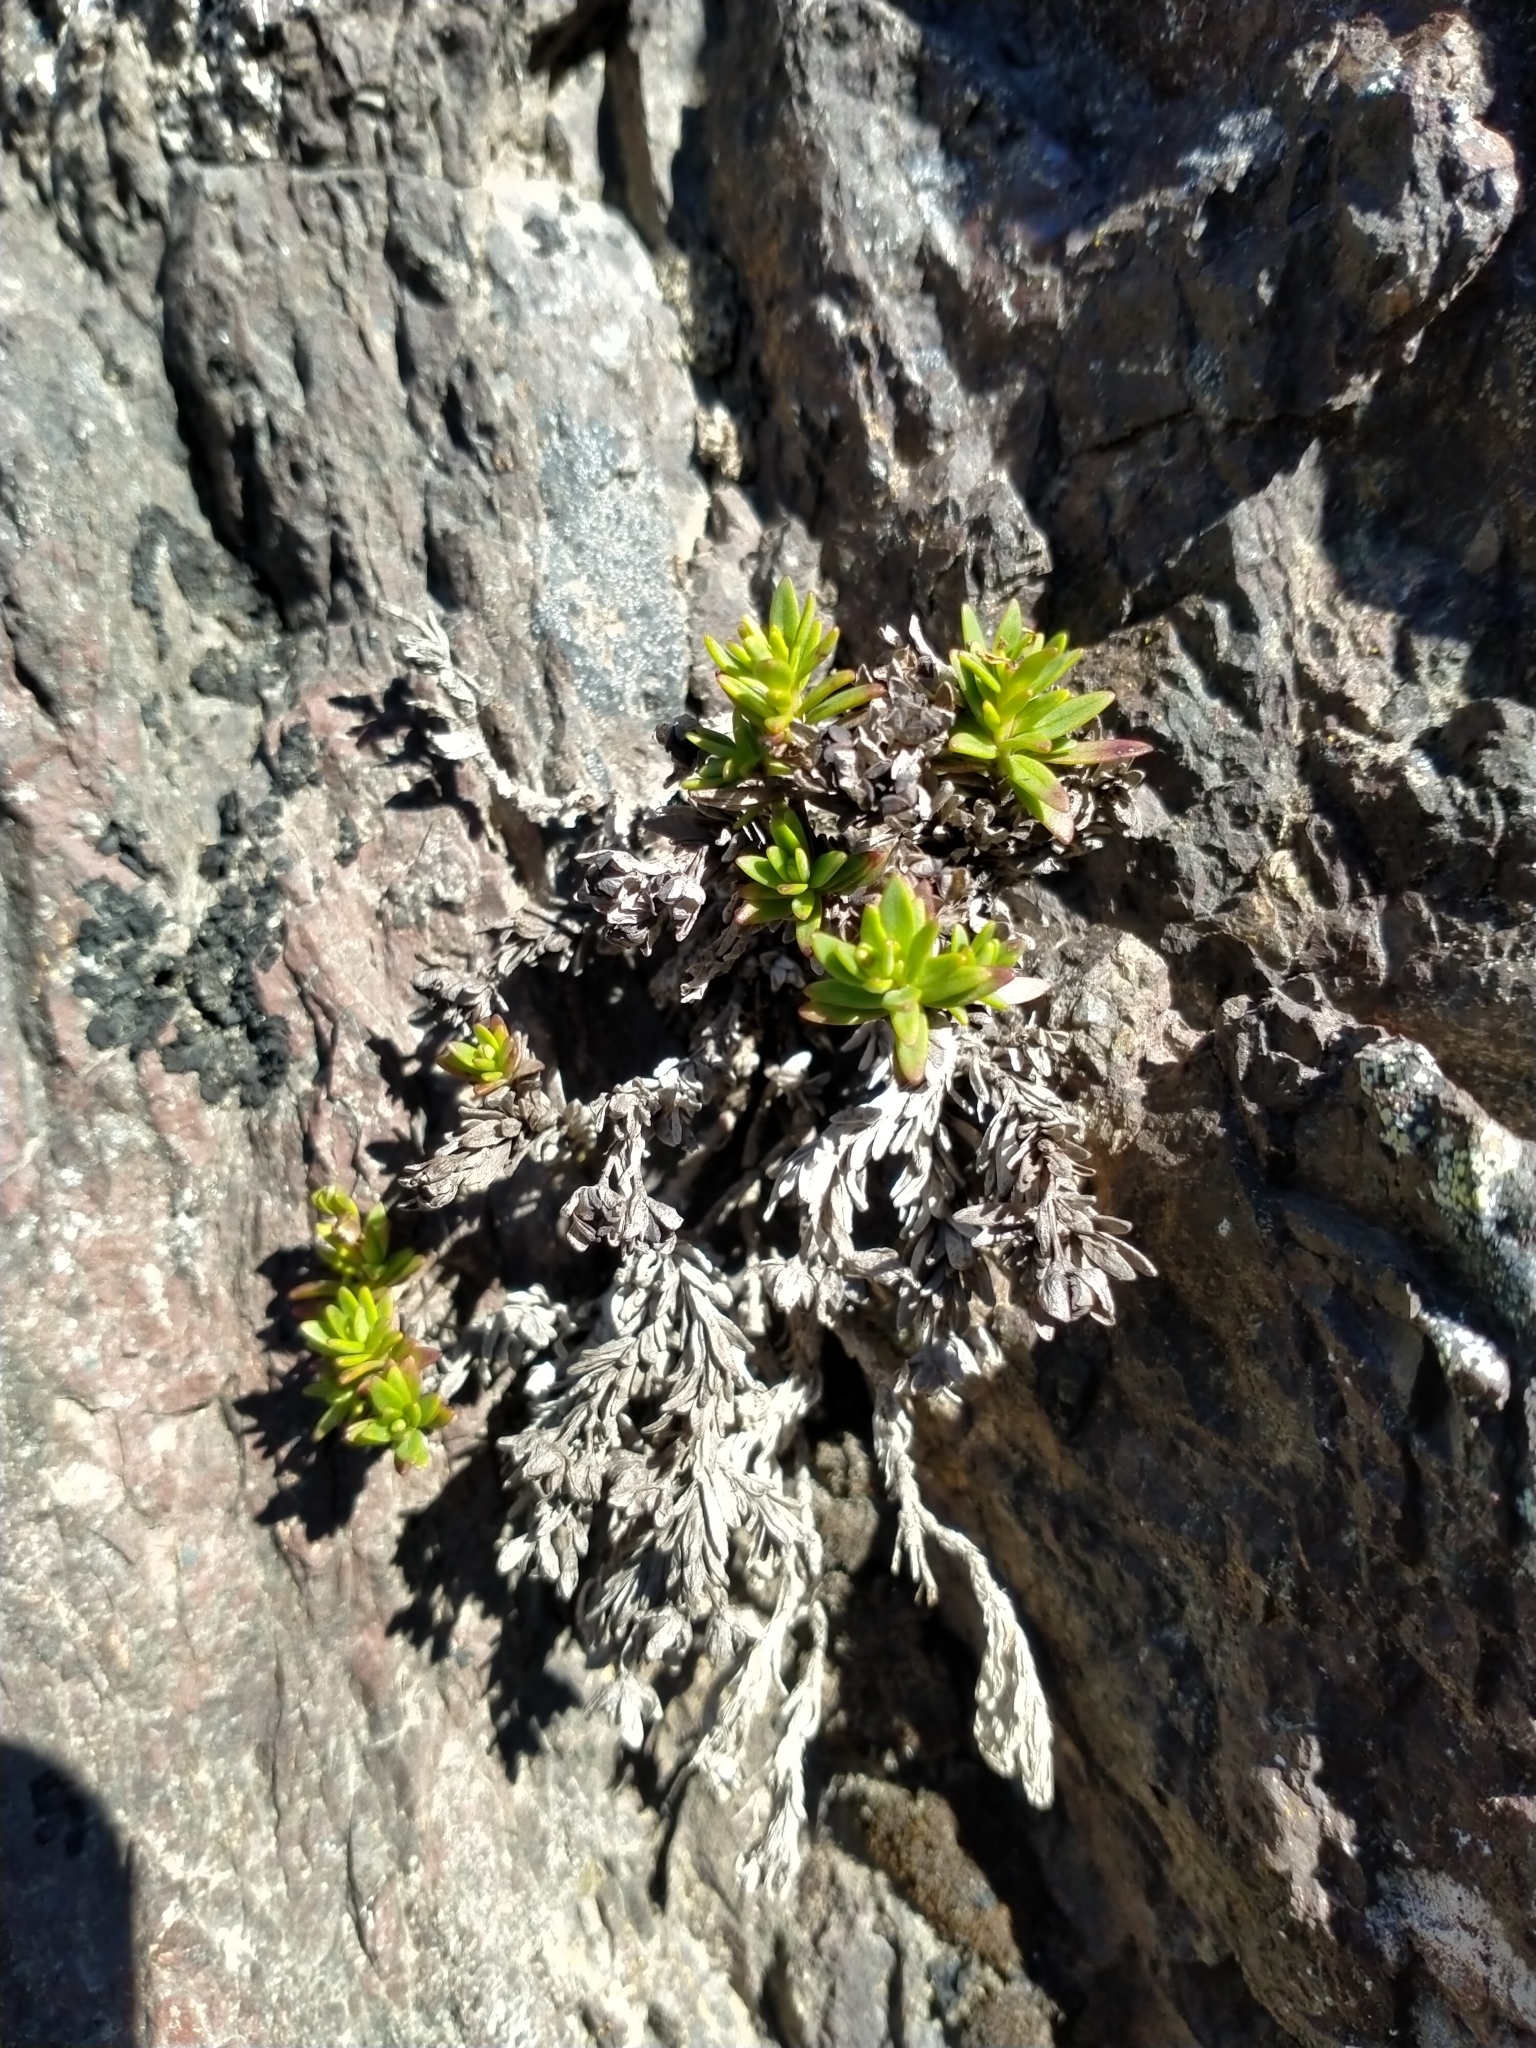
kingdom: Plantae
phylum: Tracheophyta
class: Magnoliopsida
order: Lamiales
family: Plantaginaceae
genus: Veronica
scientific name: Veronica colostylis
